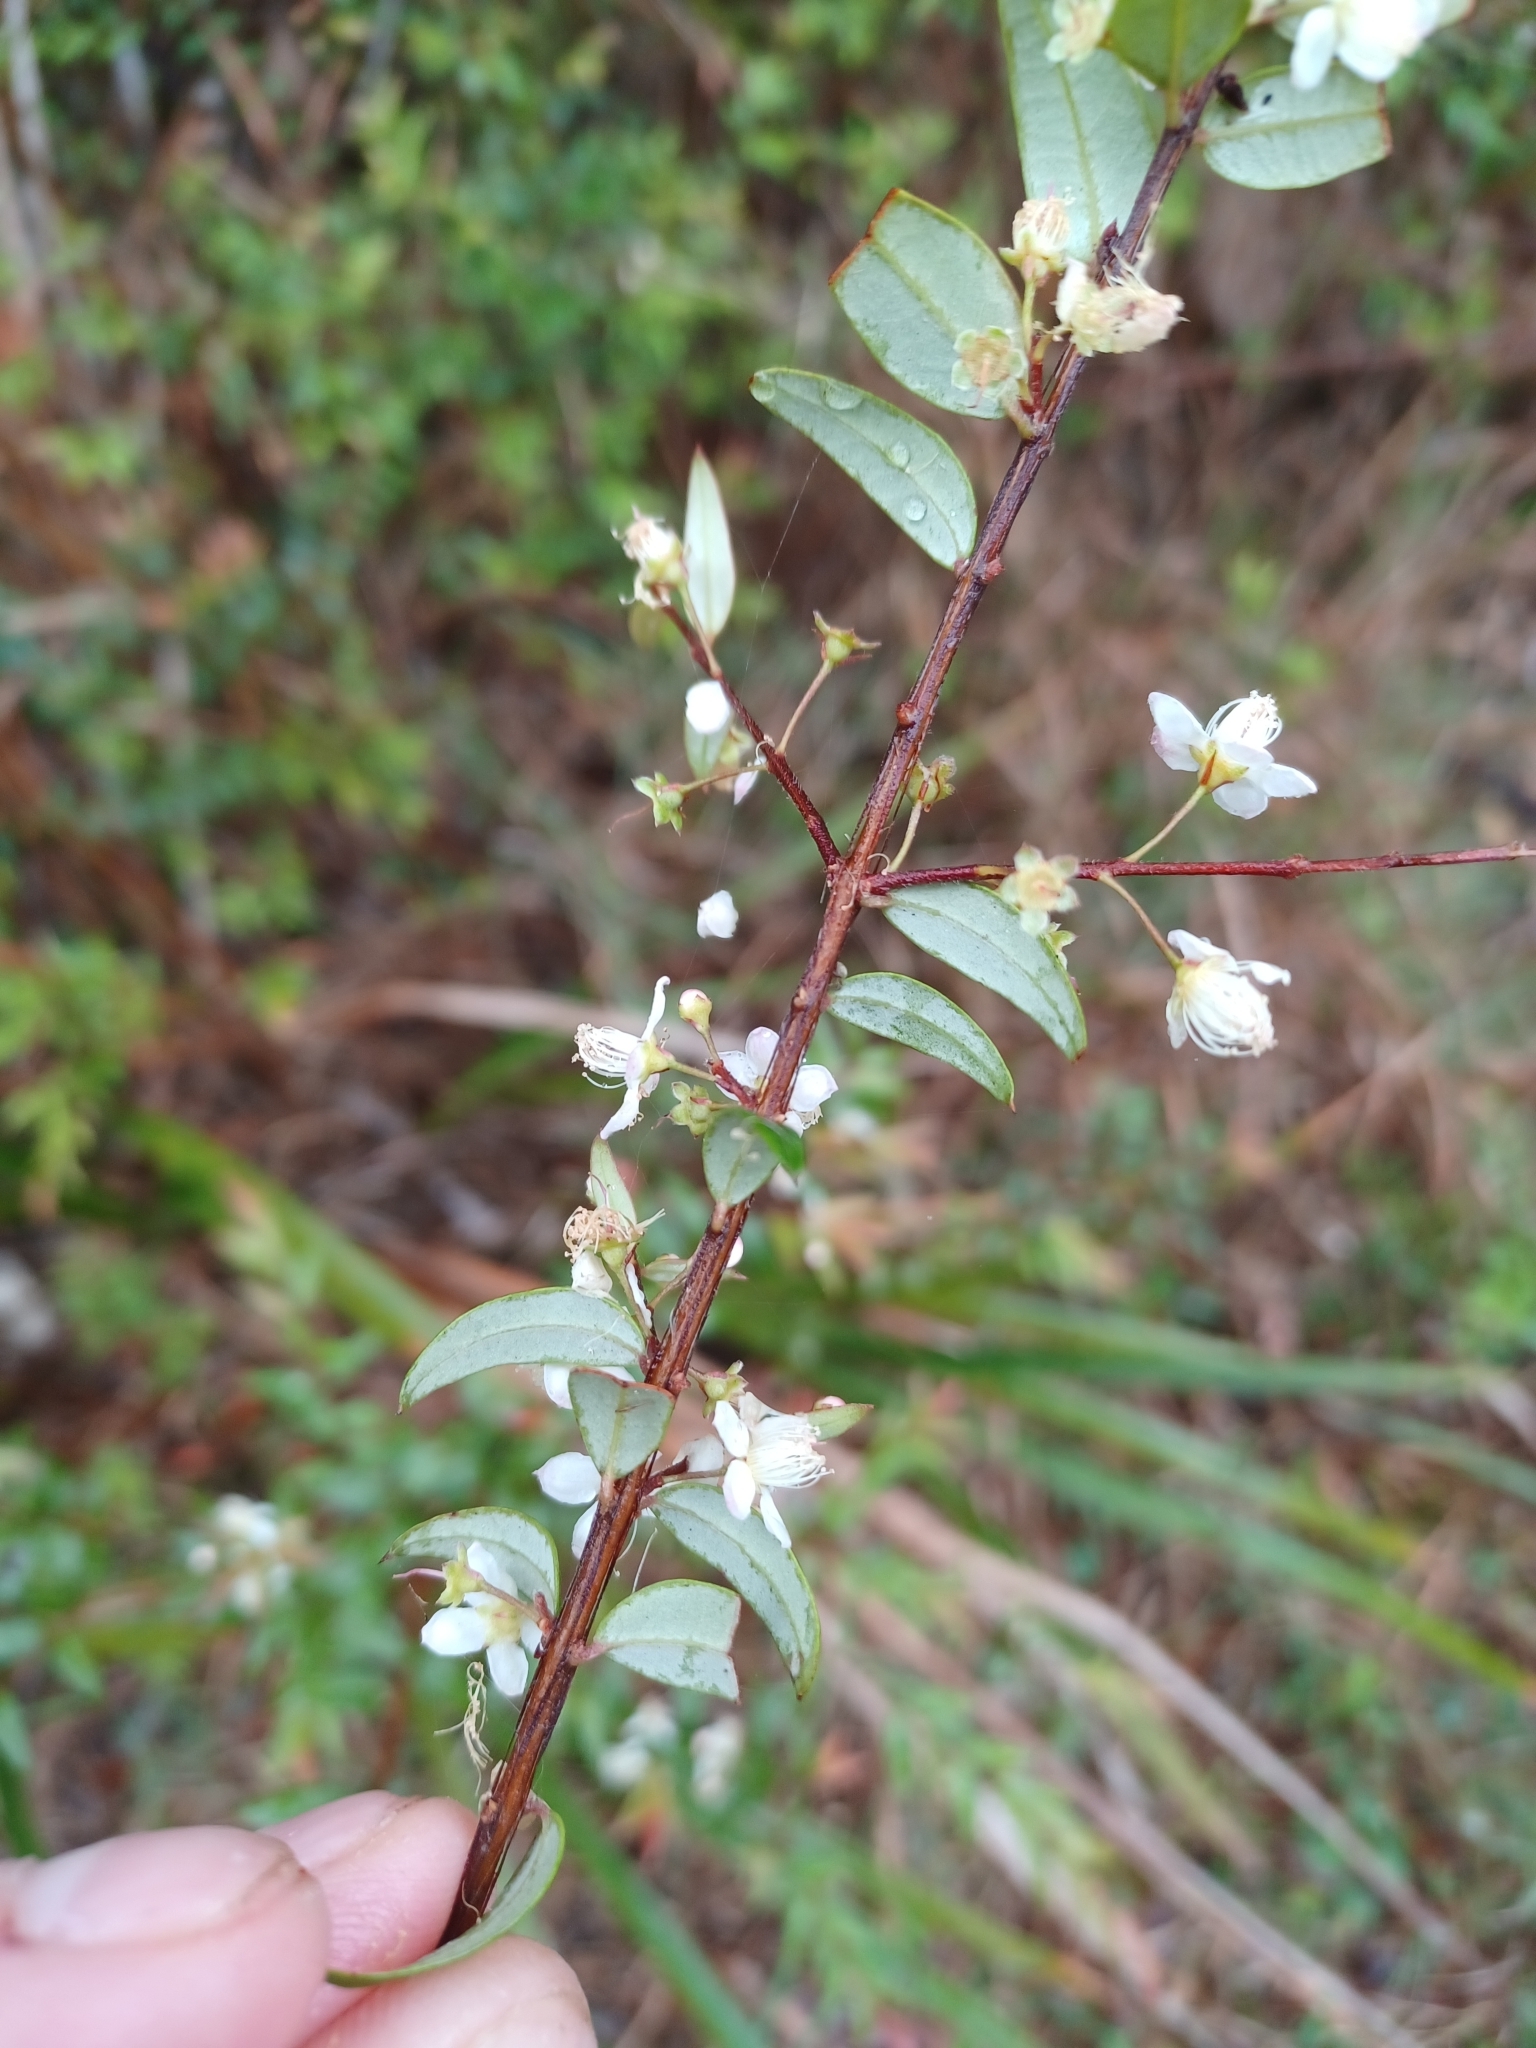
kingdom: Plantae
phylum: Tracheophyta
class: Magnoliopsida
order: Myrtales
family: Myrtaceae
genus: Austromyrtus
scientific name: Austromyrtus dulcis
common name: Migden-berry
